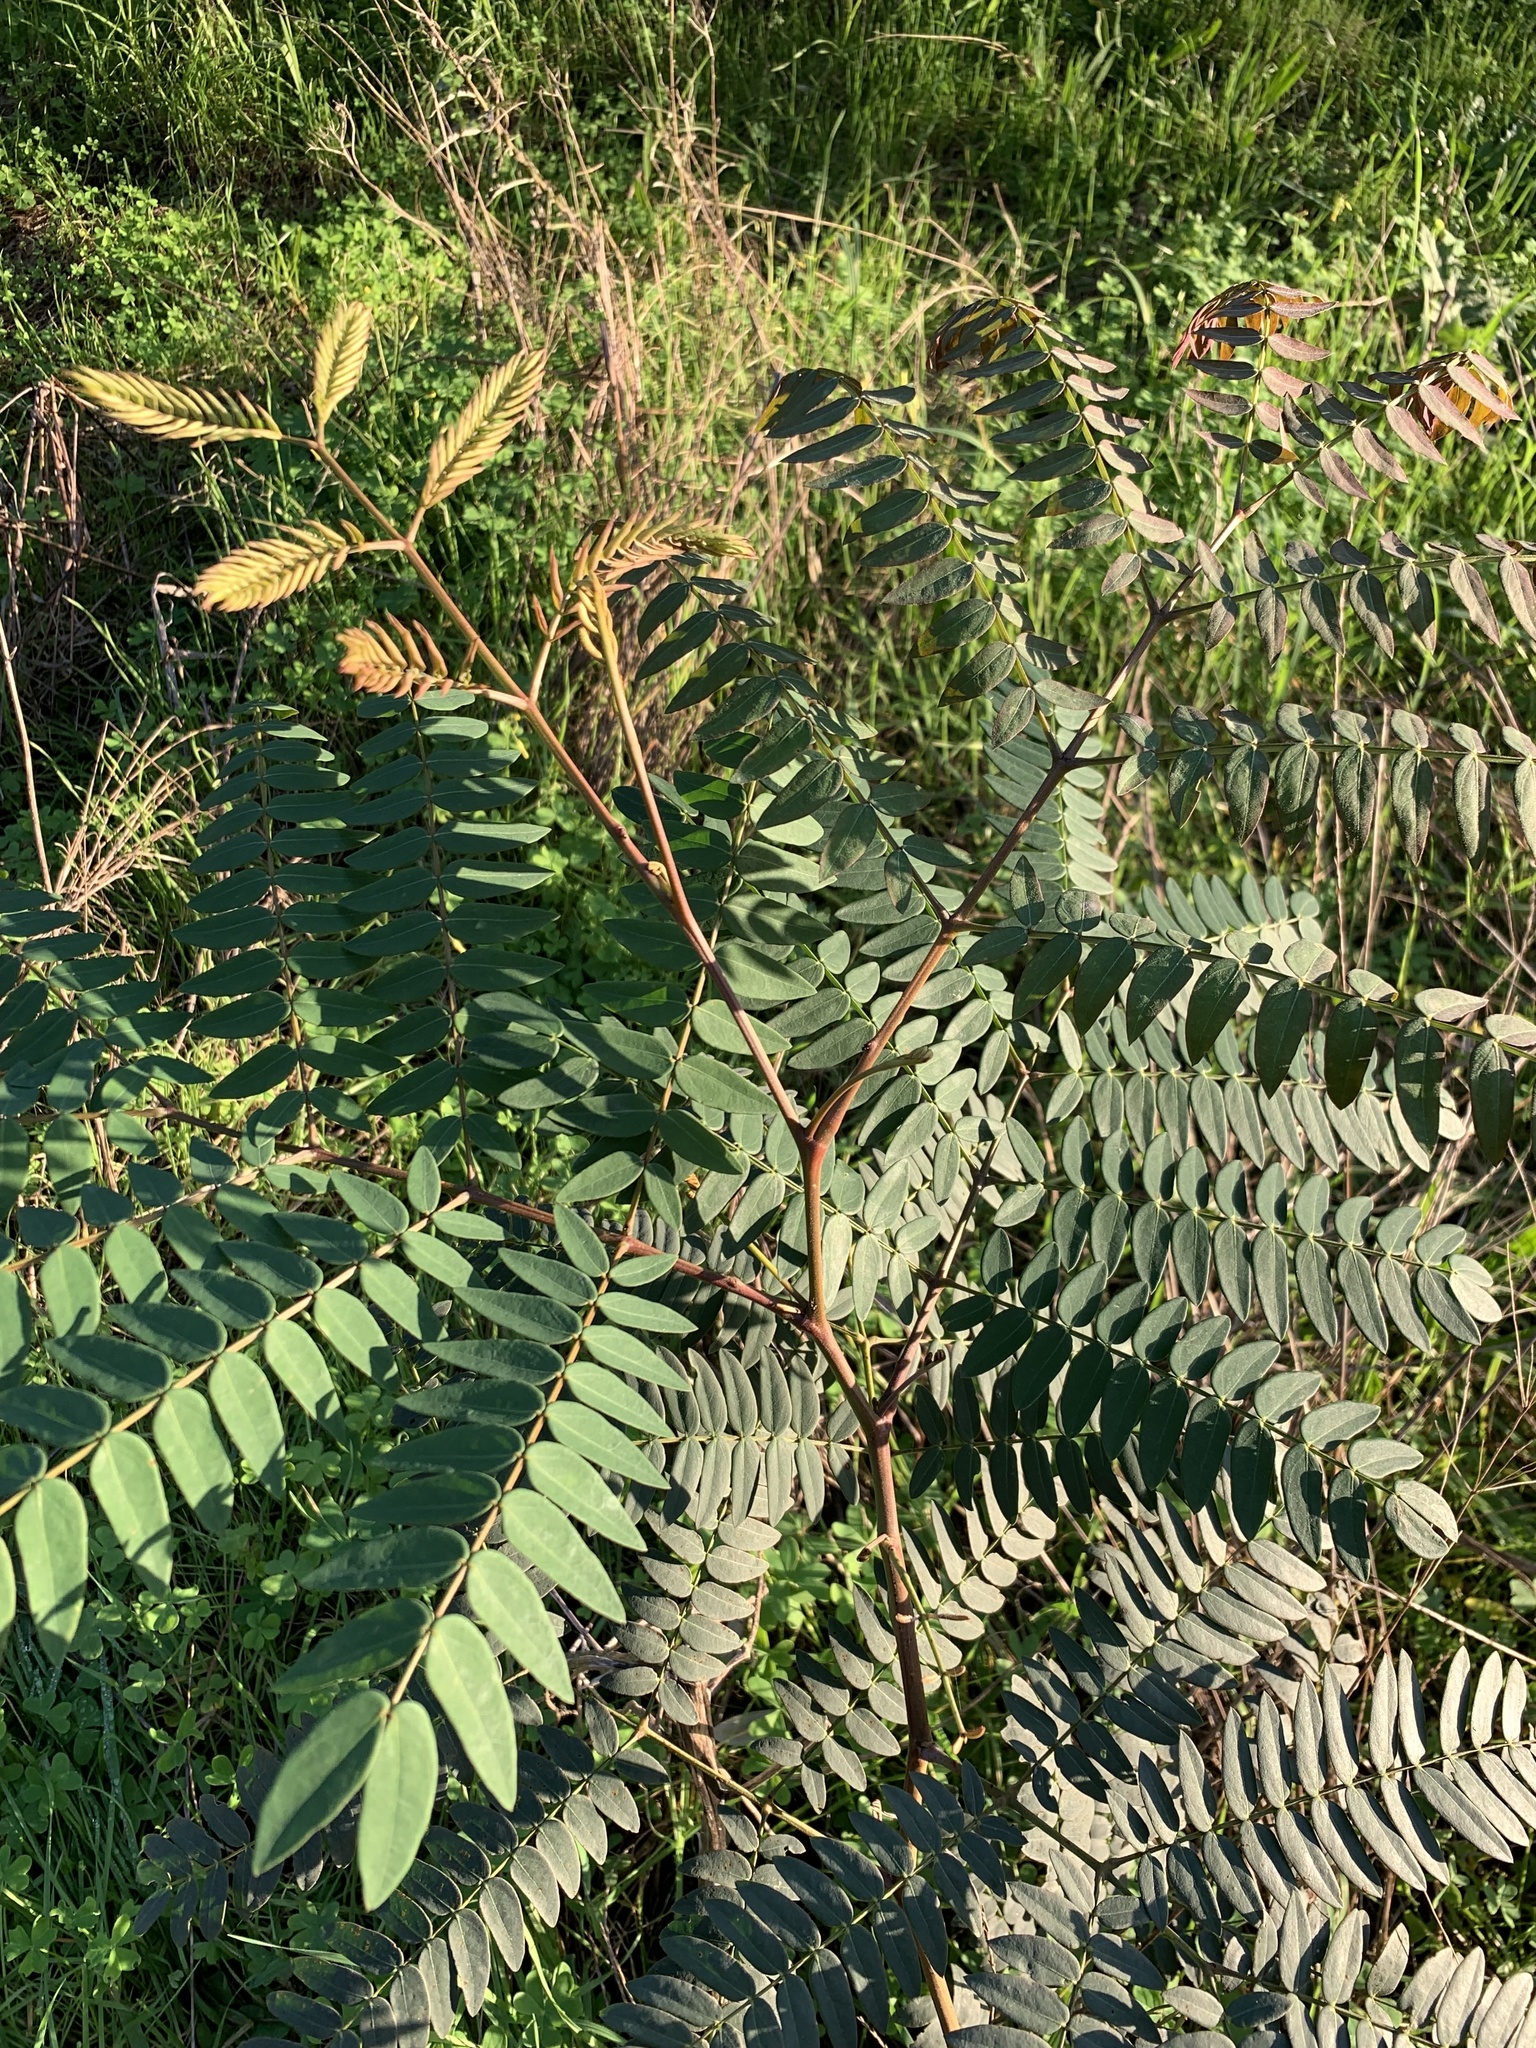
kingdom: Plantae
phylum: Tracheophyta
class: Magnoliopsida
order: Fabales
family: Fabaceae
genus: Acacia
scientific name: Acacia elata
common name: Cedar wattle
